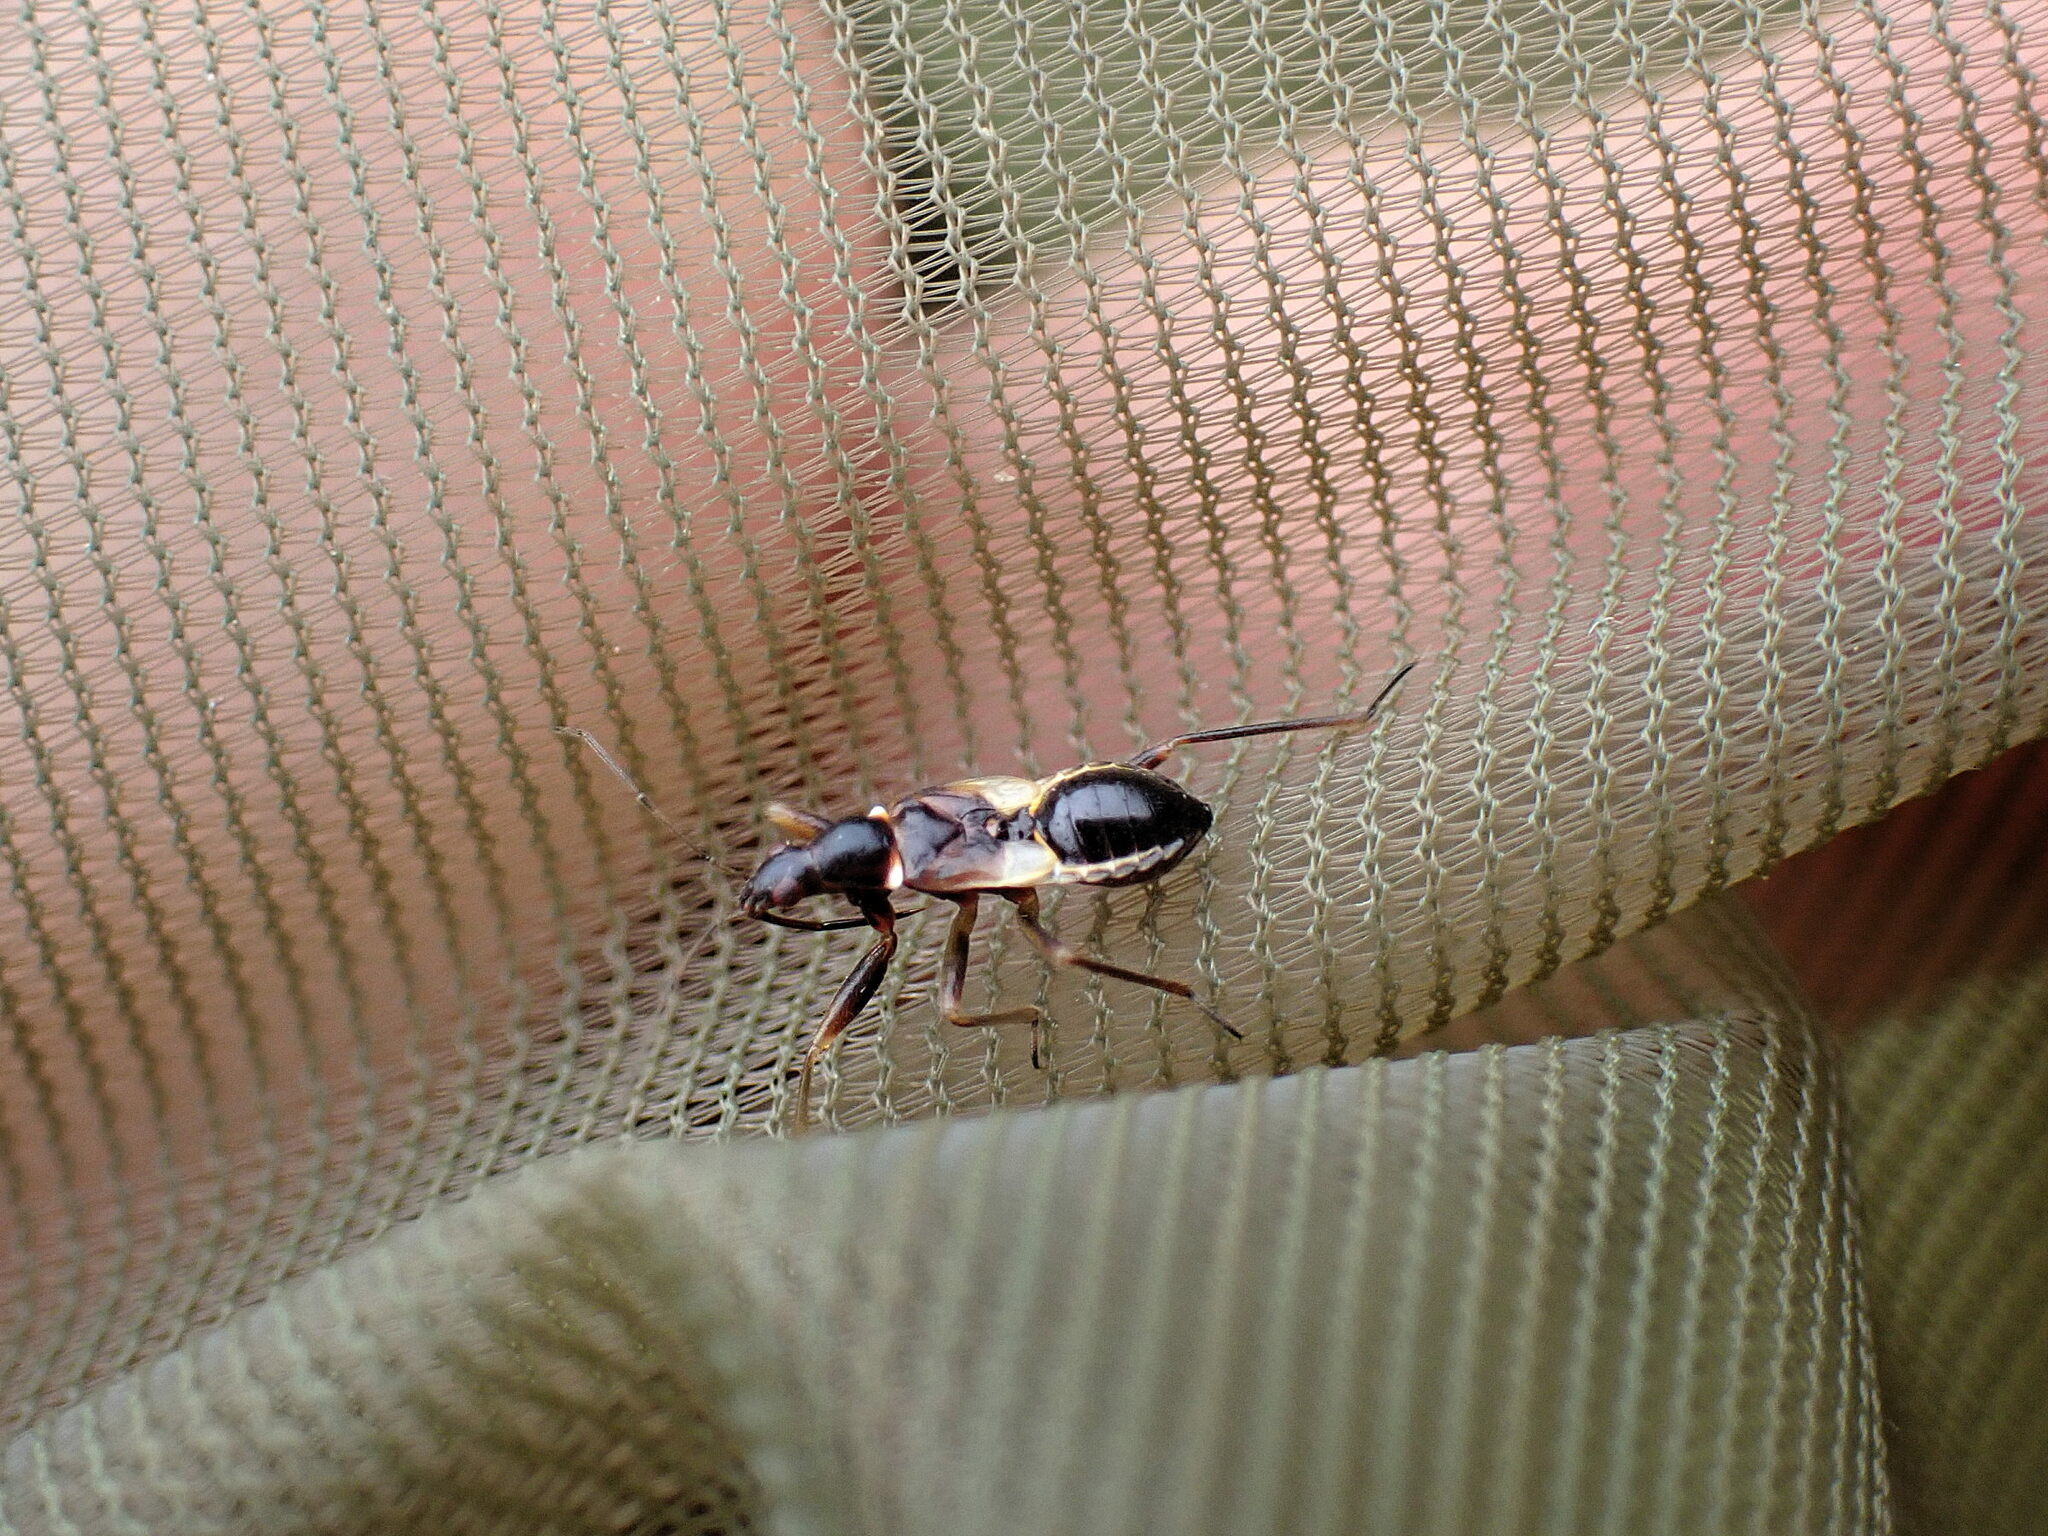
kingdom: Animalia
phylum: Arthropoda
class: Insecta
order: Hemiptera
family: Nabidae
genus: Himacerus
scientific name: Himacerus mirmicoides
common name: Ant damsel bug
